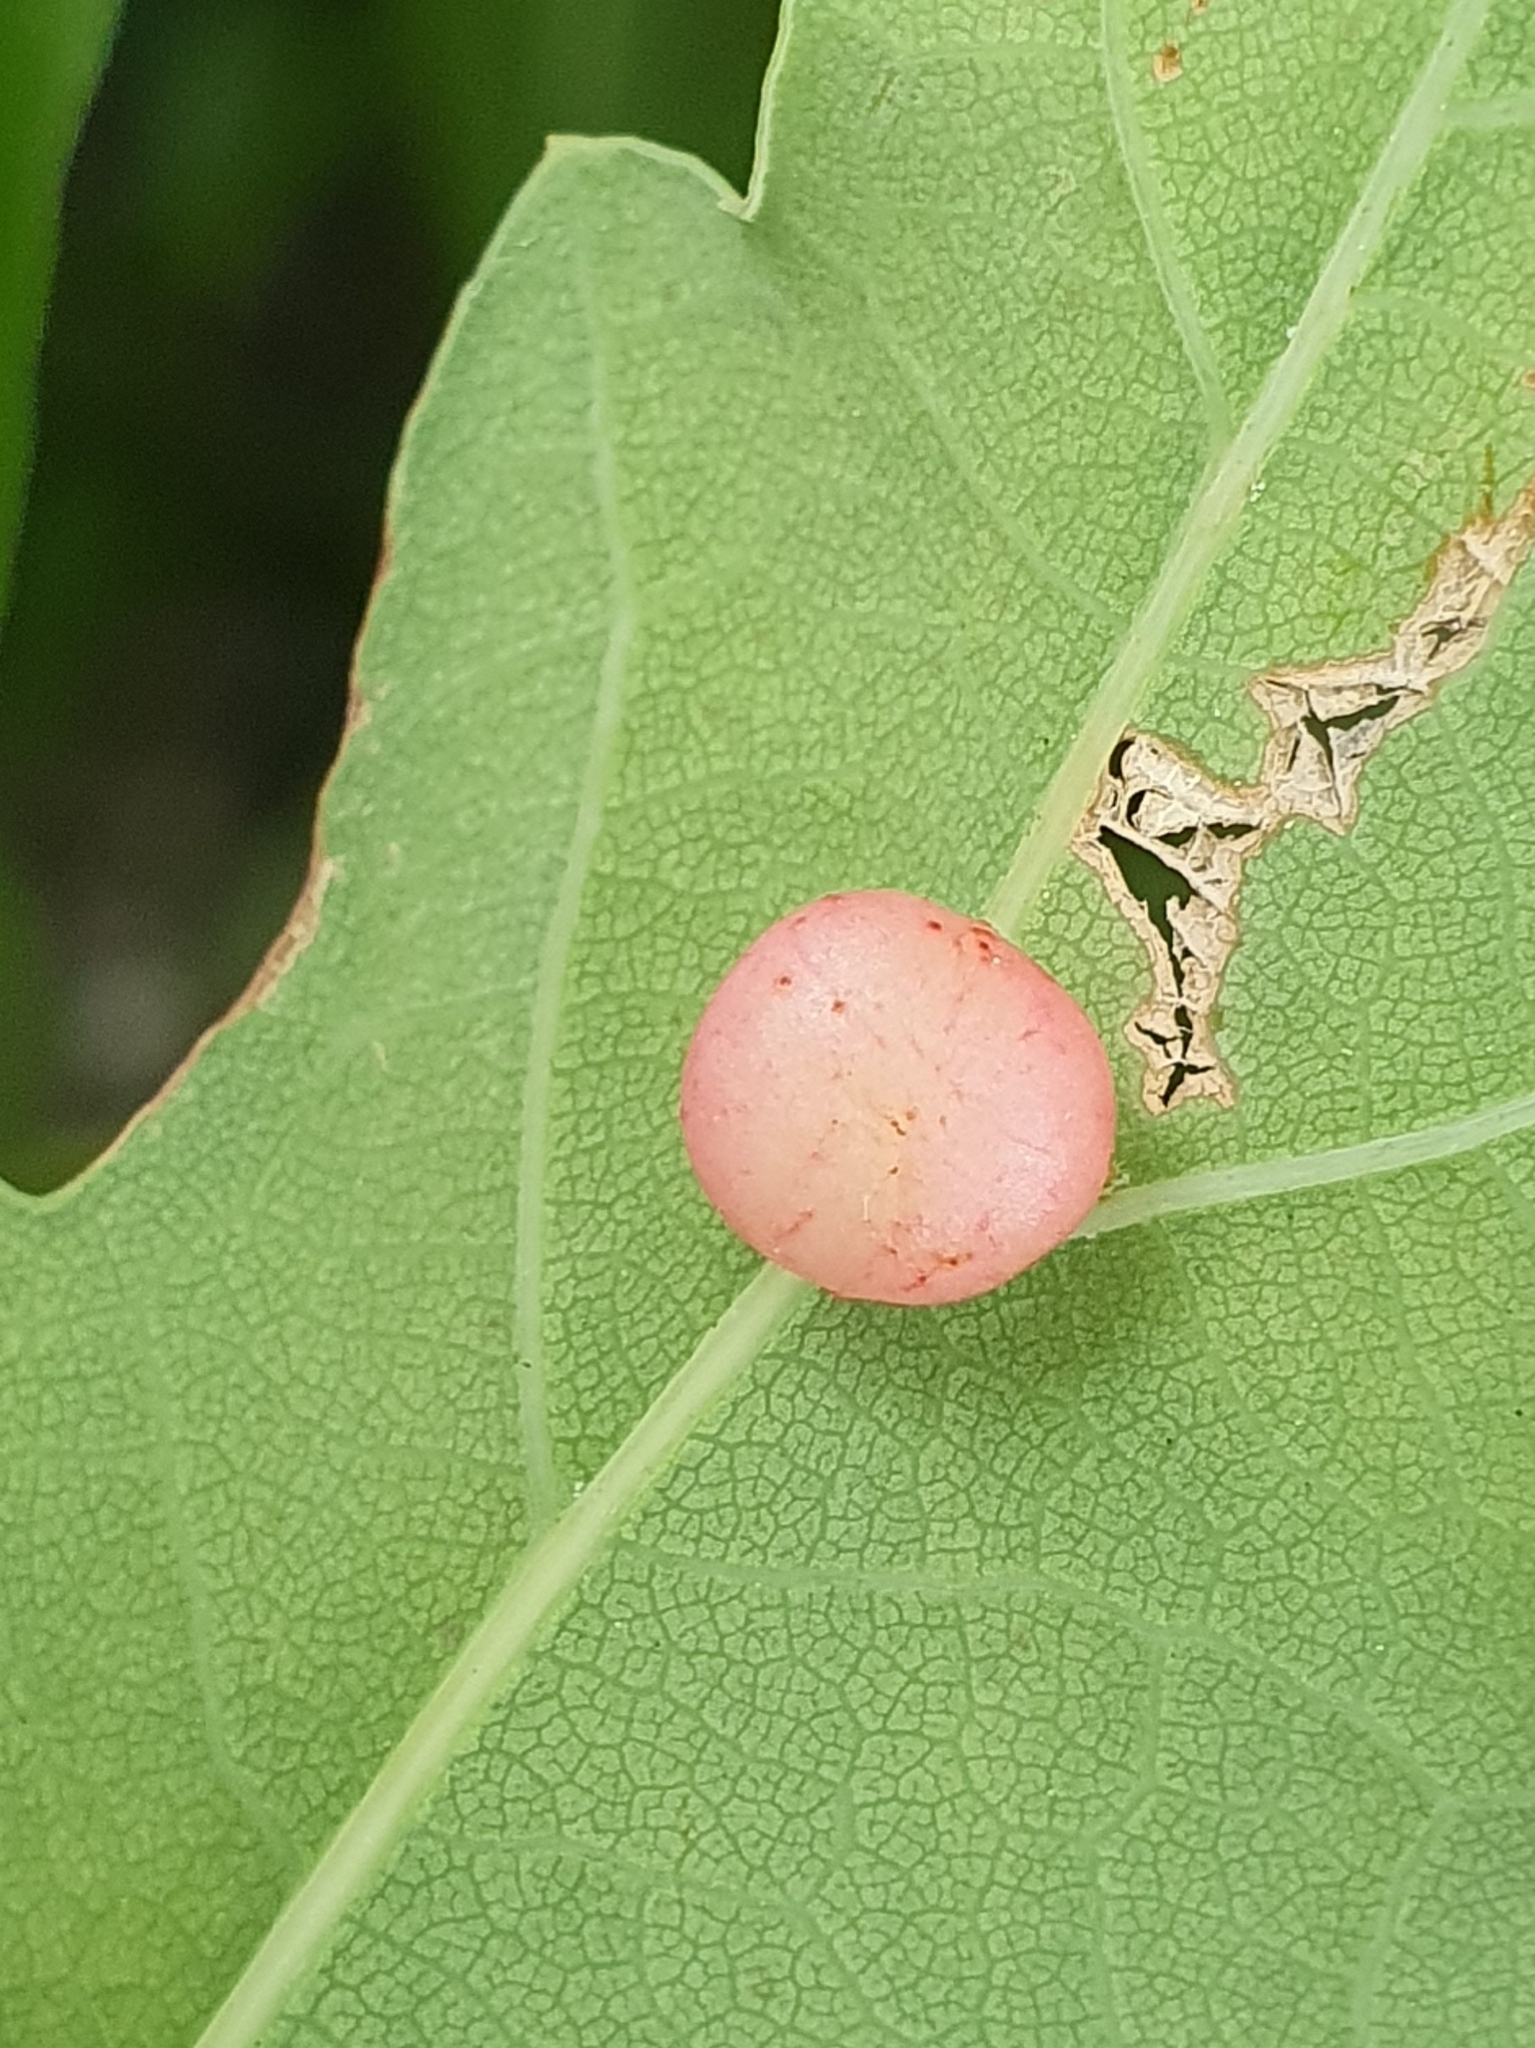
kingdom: Animalia
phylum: Arthropoda
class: Insecta
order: Hymenoptera
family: Cynipidae
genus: Cynips
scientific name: Cynips divisa
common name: Red currant gall
